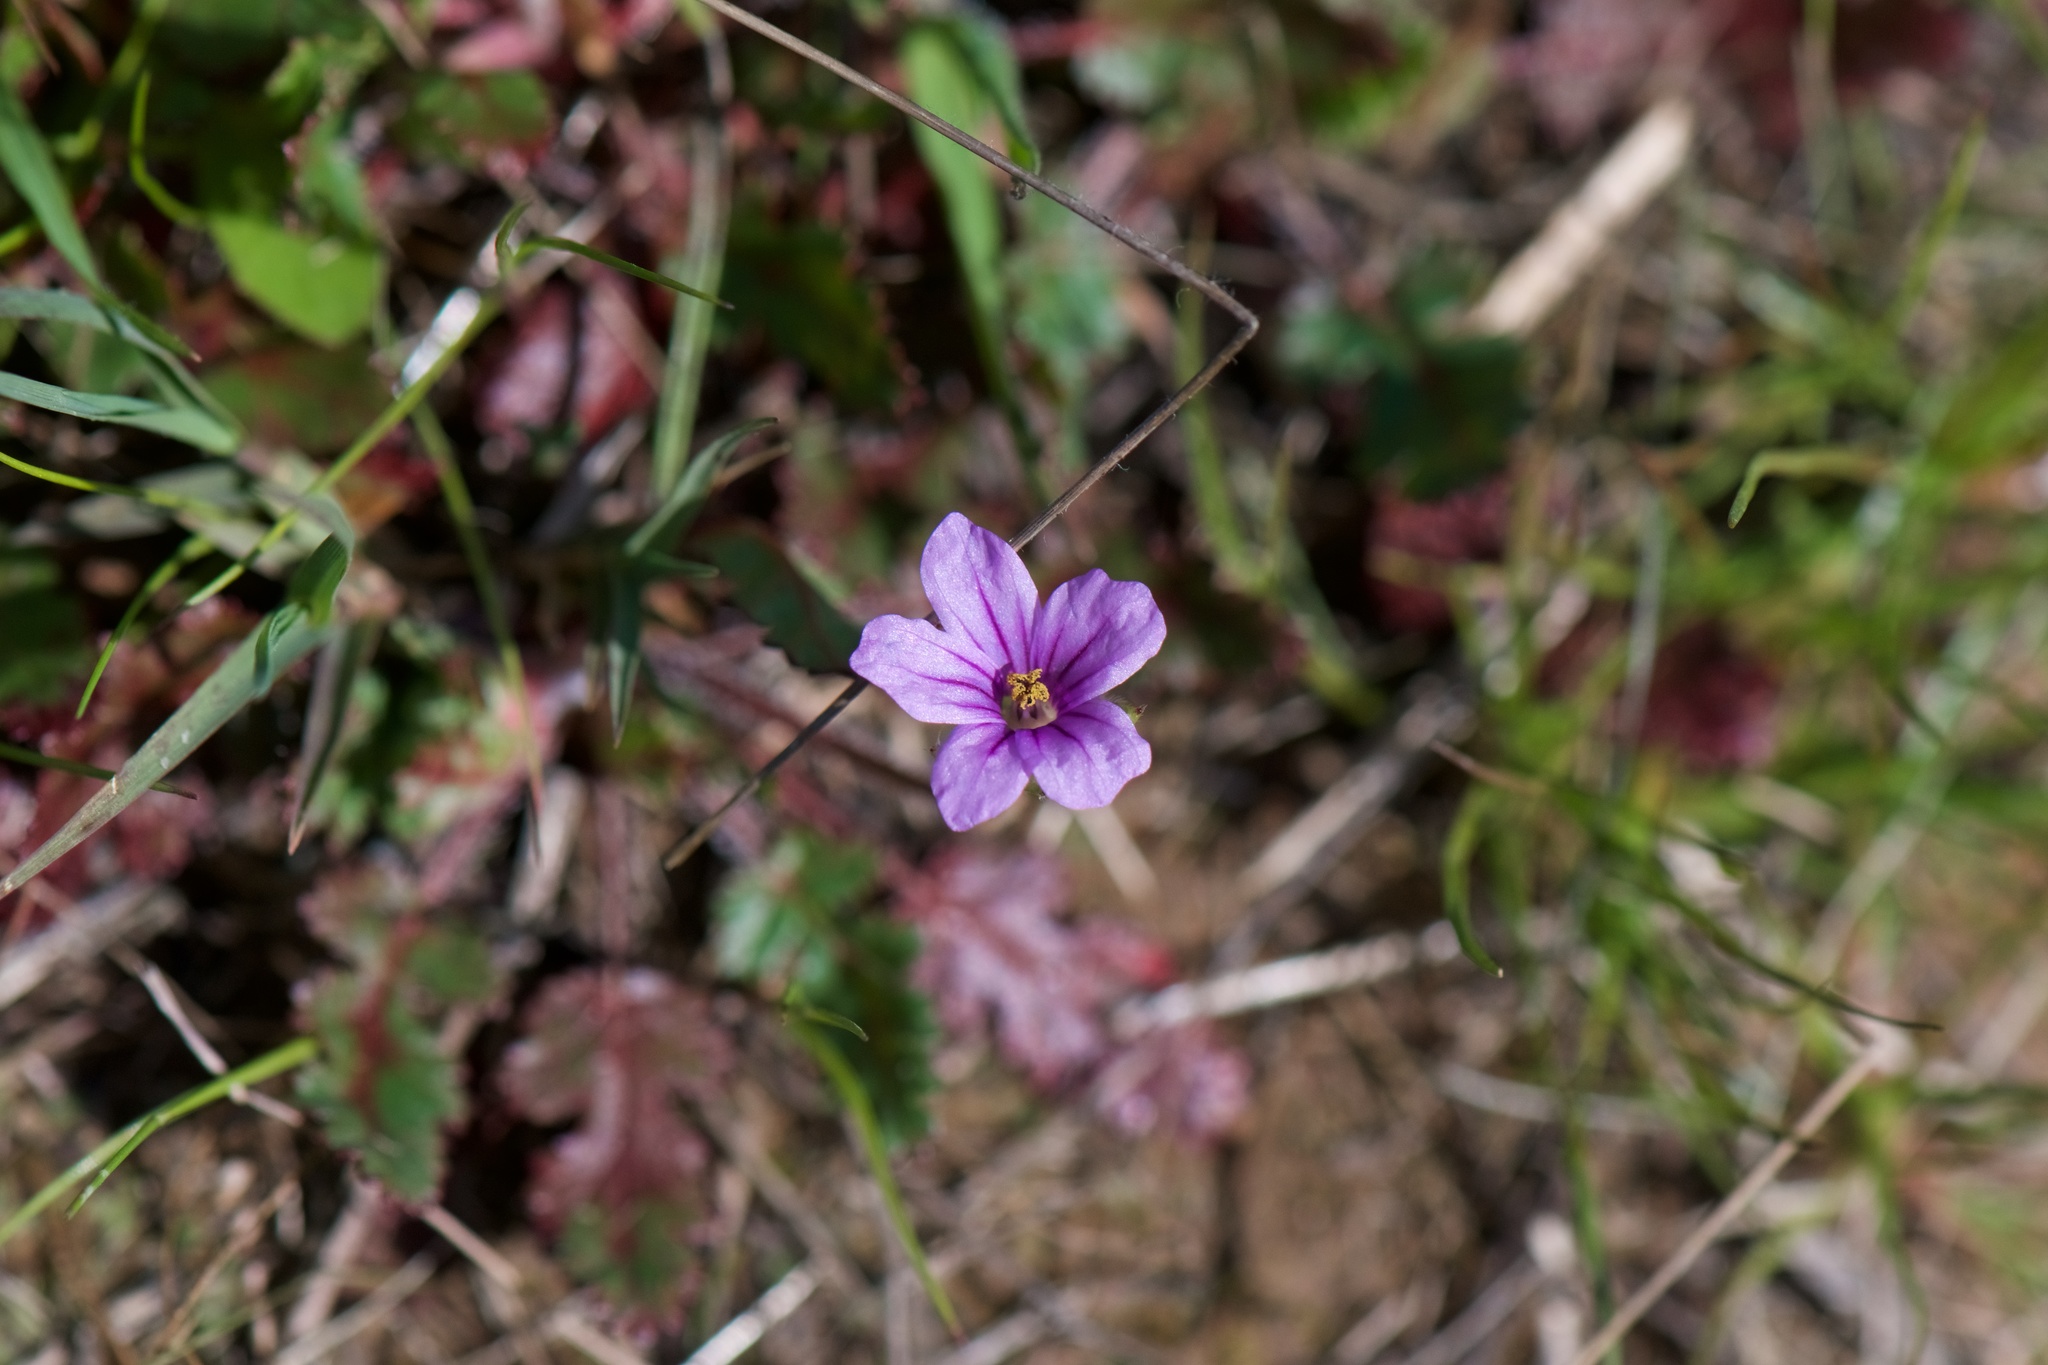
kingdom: Plantae
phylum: Tracheophyta
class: Magnoliopsida
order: Geraniales
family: Geraniaceae
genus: Erodium
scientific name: Erodium botrys
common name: Mediterranean stork's-bill
